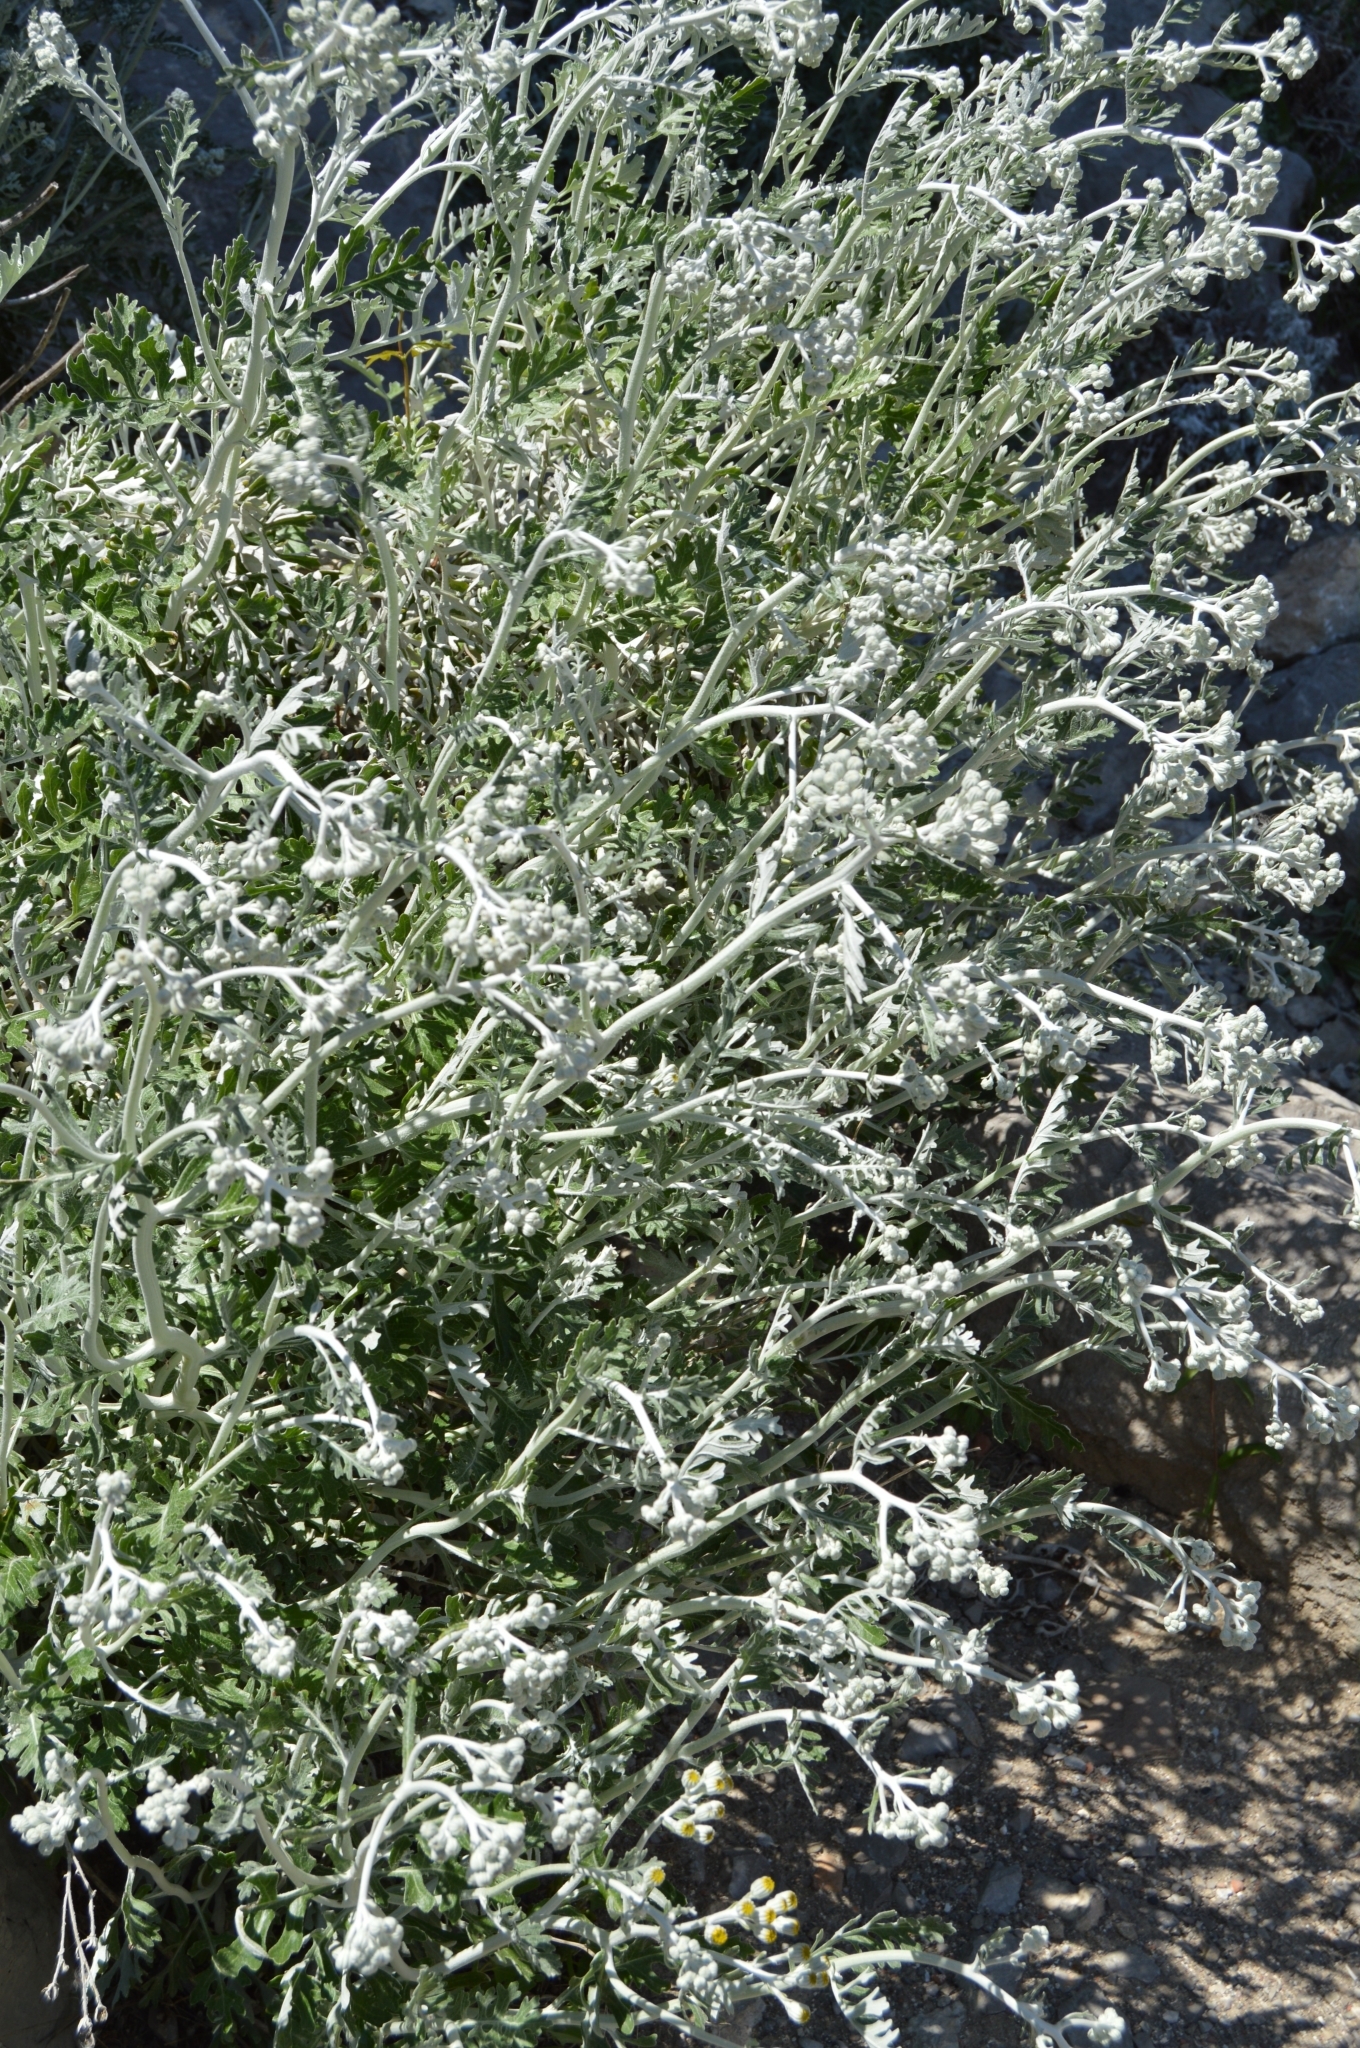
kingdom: Plantae
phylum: Tracheophyta
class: Magnoliopsida
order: Asterales
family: Asteraceae
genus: Jacobaea
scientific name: Jacobaea maritima
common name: Silver ragwort
